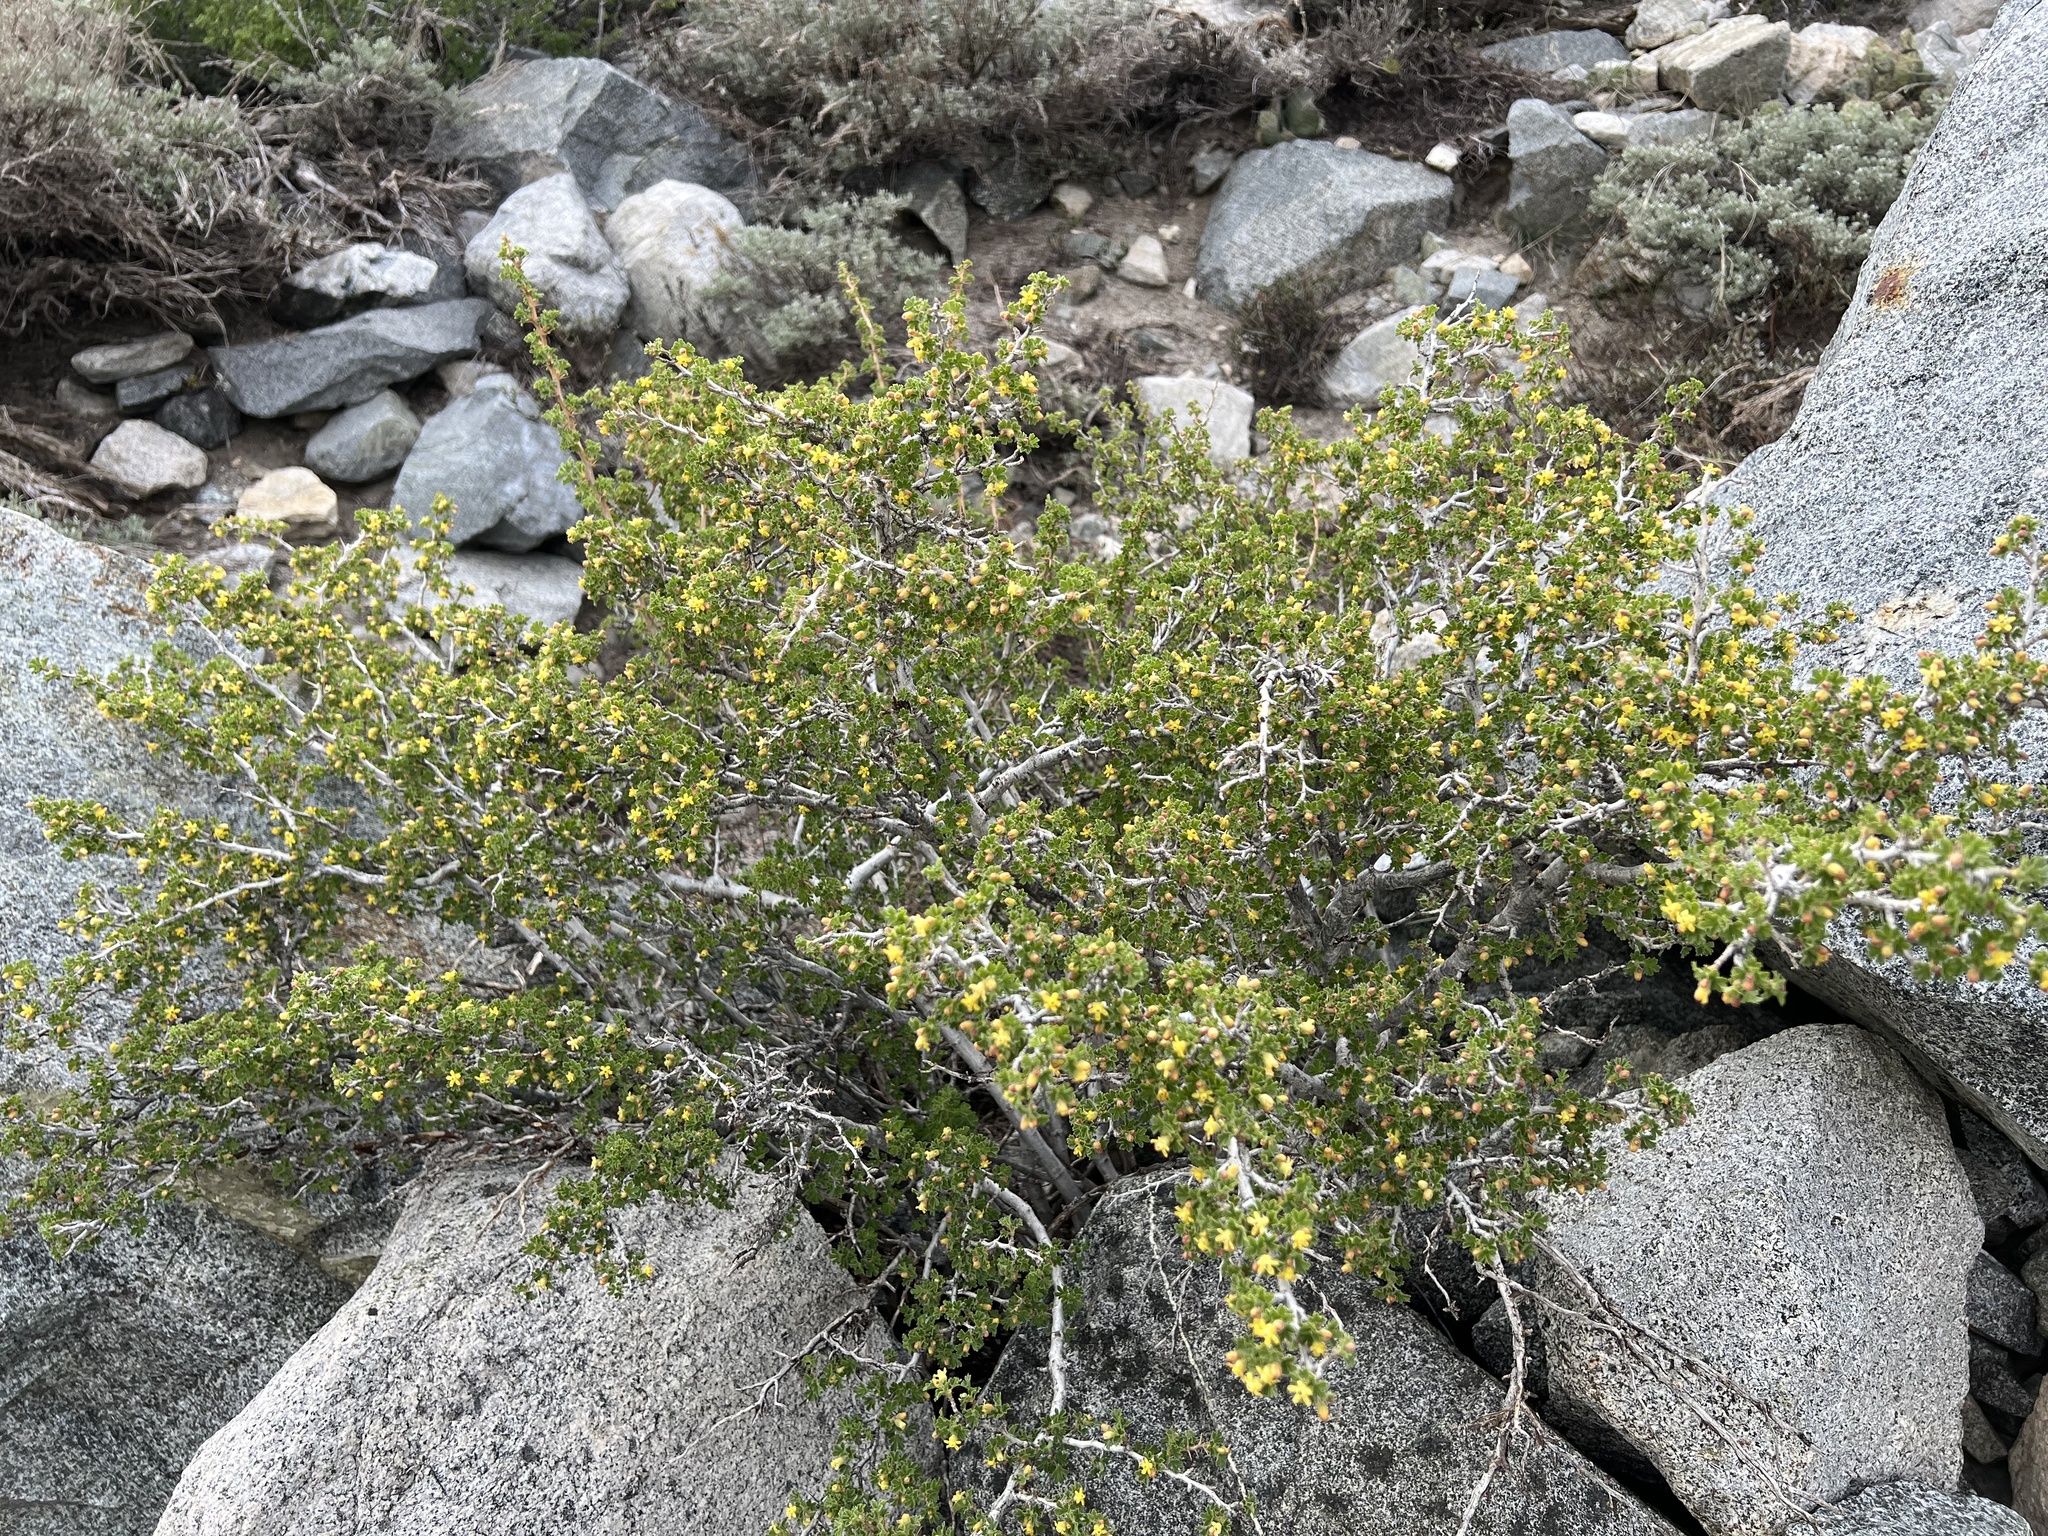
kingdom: Plantae
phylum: Tracheophyta
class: Magnoliopsida
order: Saxifragales
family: Grossulariaceae
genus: Ribes
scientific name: Ribes velutinum
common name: Desert gooseberry
